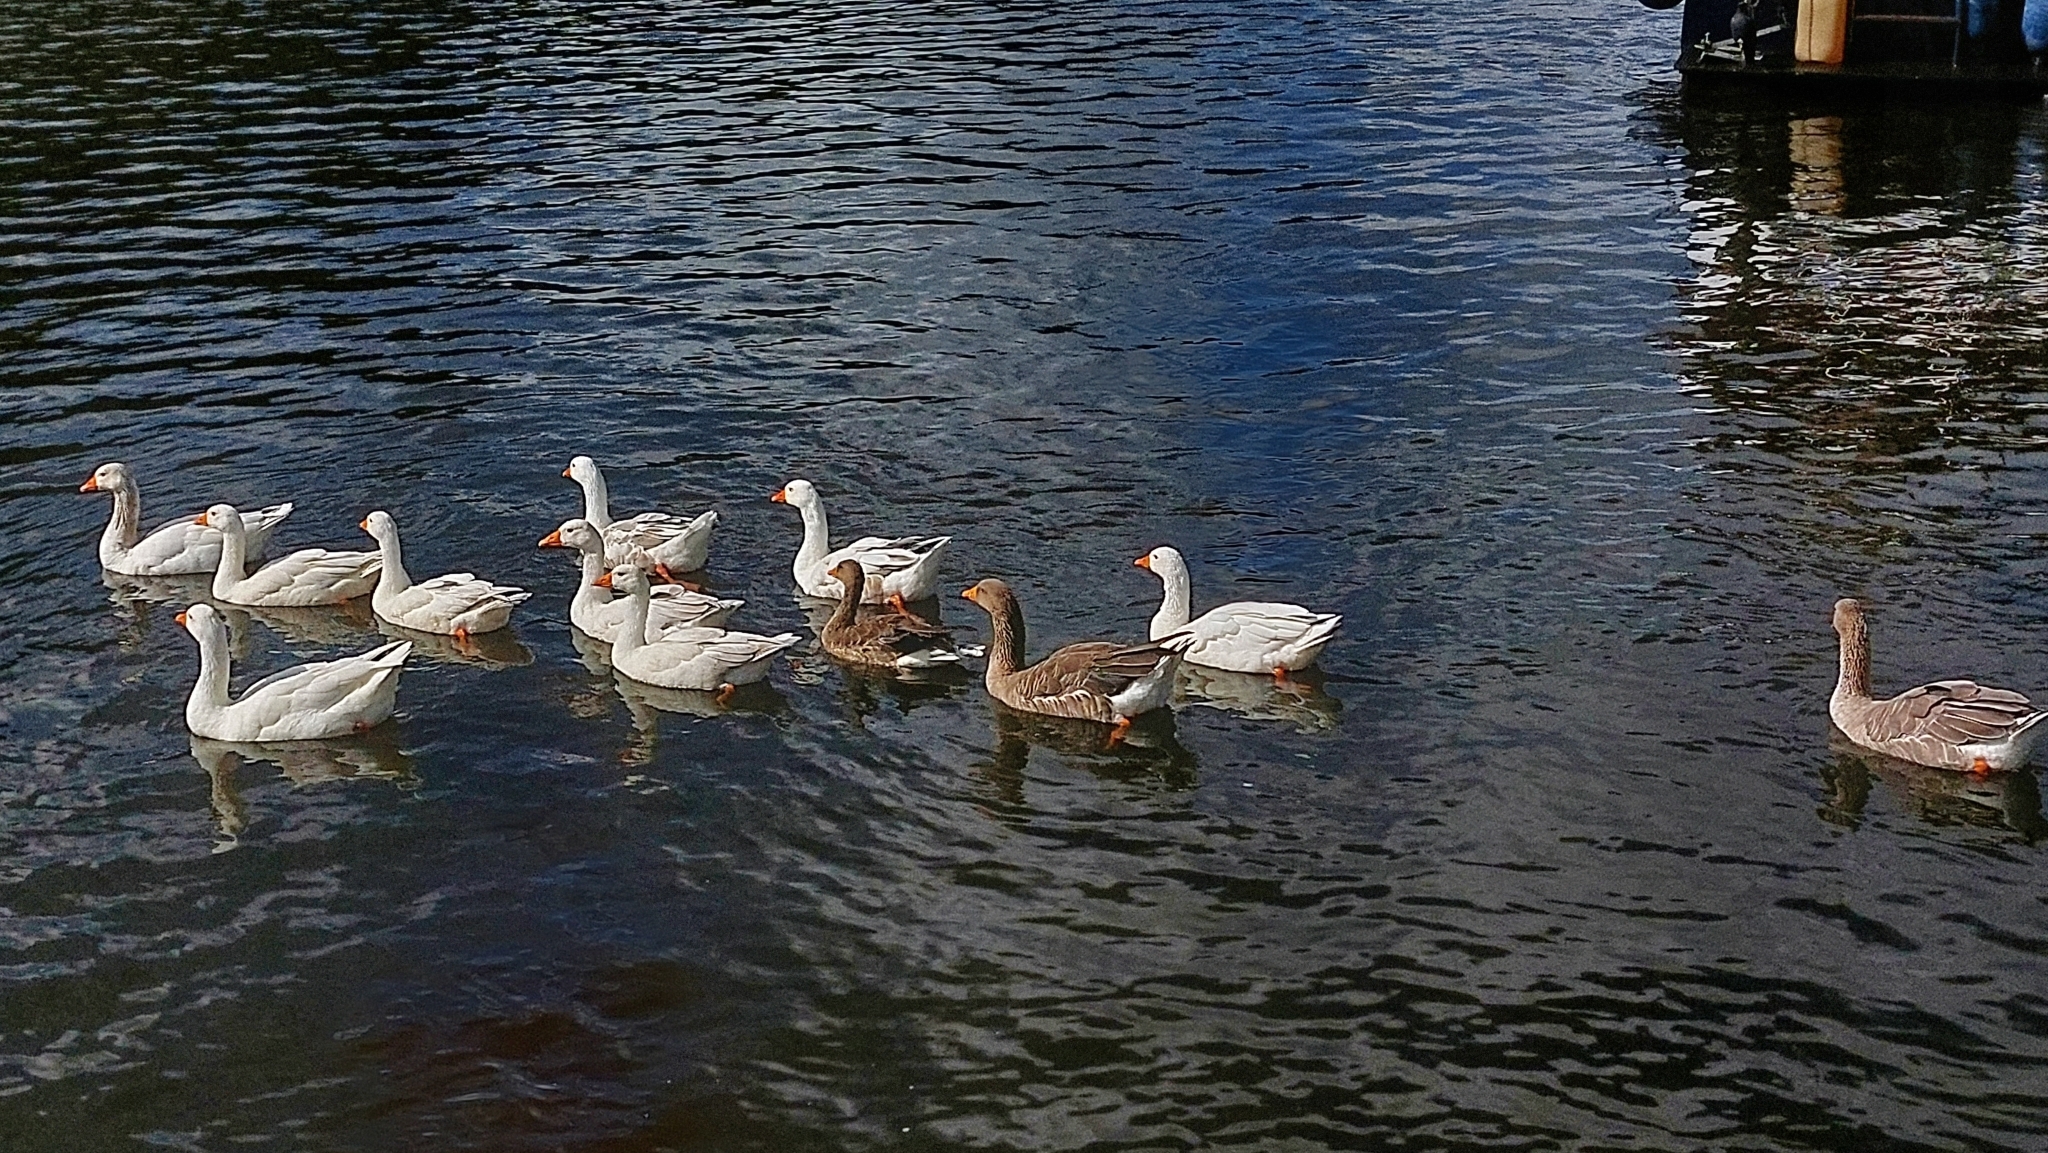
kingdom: Animalia
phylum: Chordata
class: Aves
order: Anseriformes
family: Anatidae
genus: Anser
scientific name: Anser anser
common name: Greylag goose
